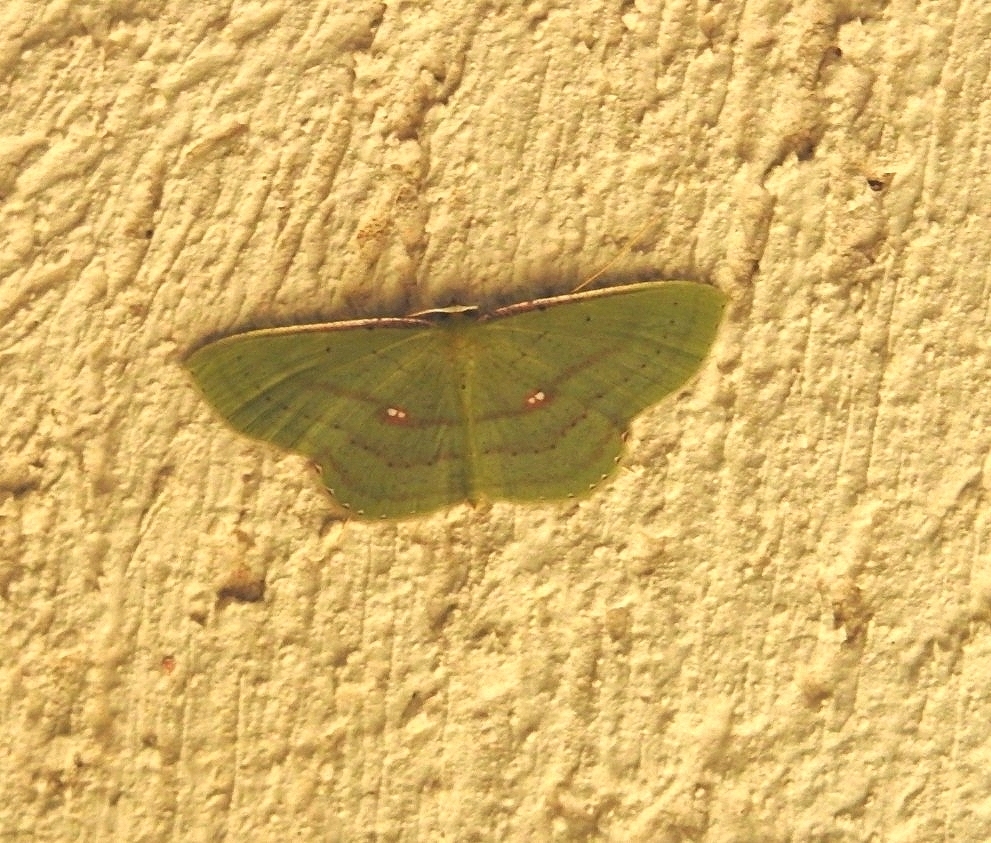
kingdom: Animalia
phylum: Arthropoda
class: Insecta
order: Lepidoptera
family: Geometridae
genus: Ametris
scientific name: Ametris nitocris
